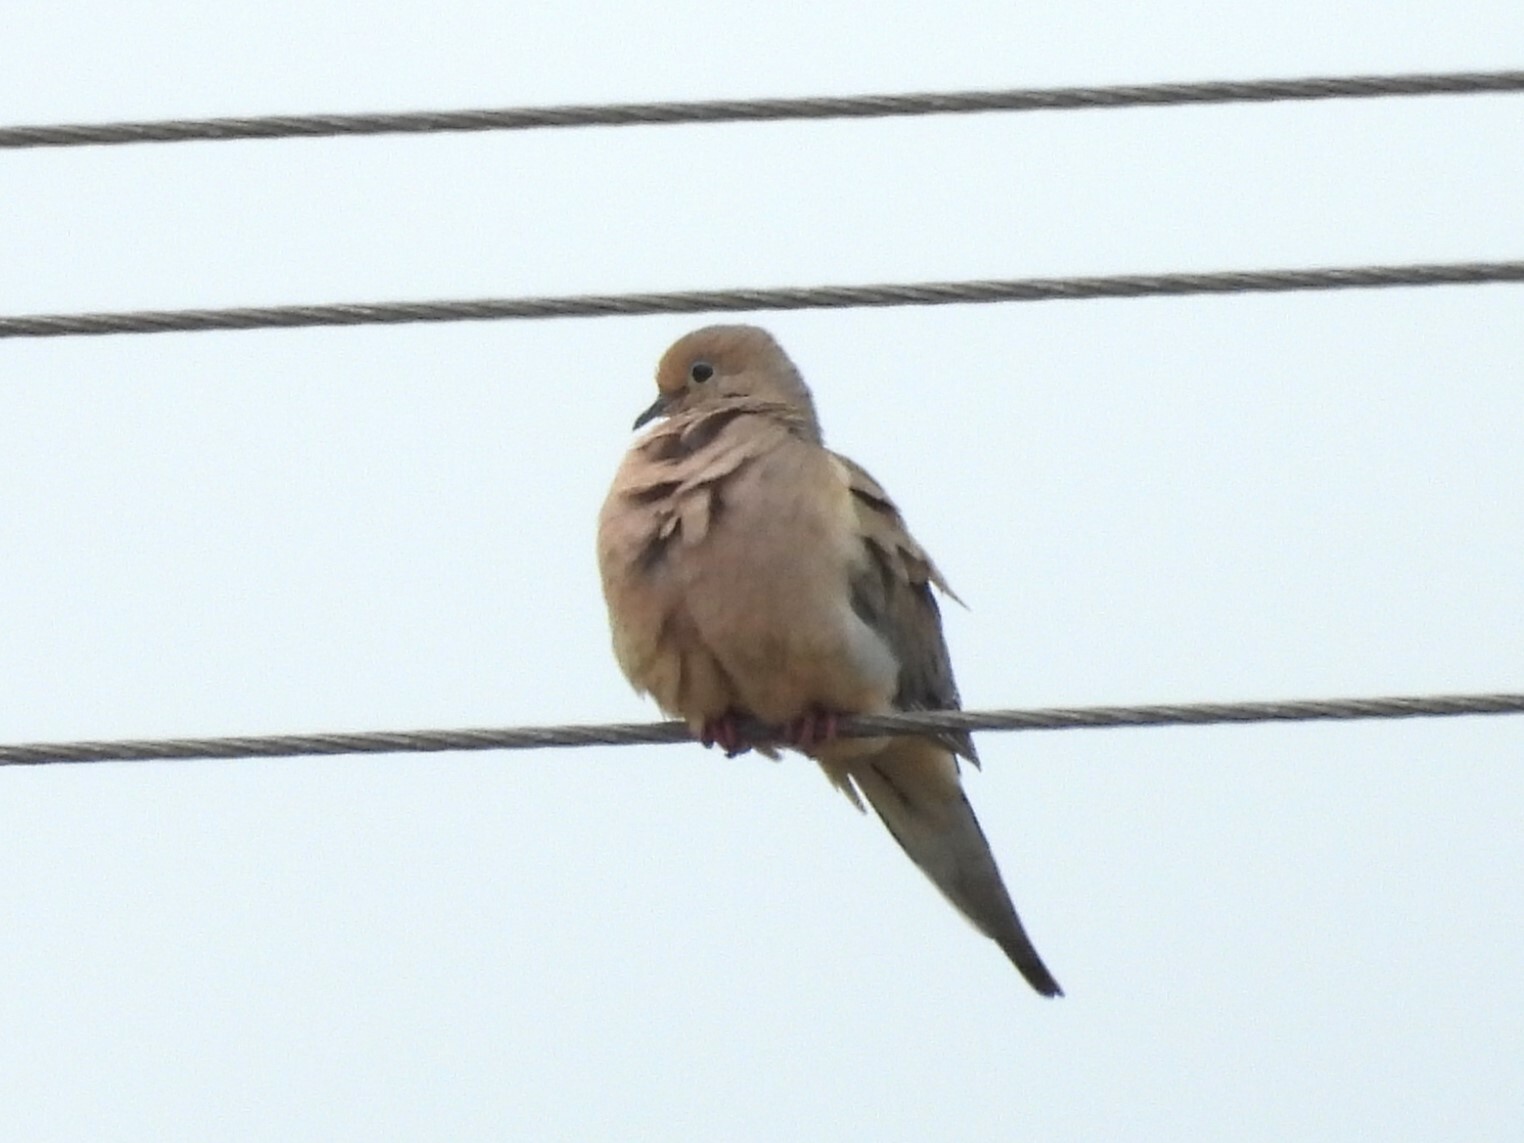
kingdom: Animalia
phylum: Chordata
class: Aves
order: Columbiformes
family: Columbidae
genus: Zenaida
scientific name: Zenaida macroura
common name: Mourning dove
